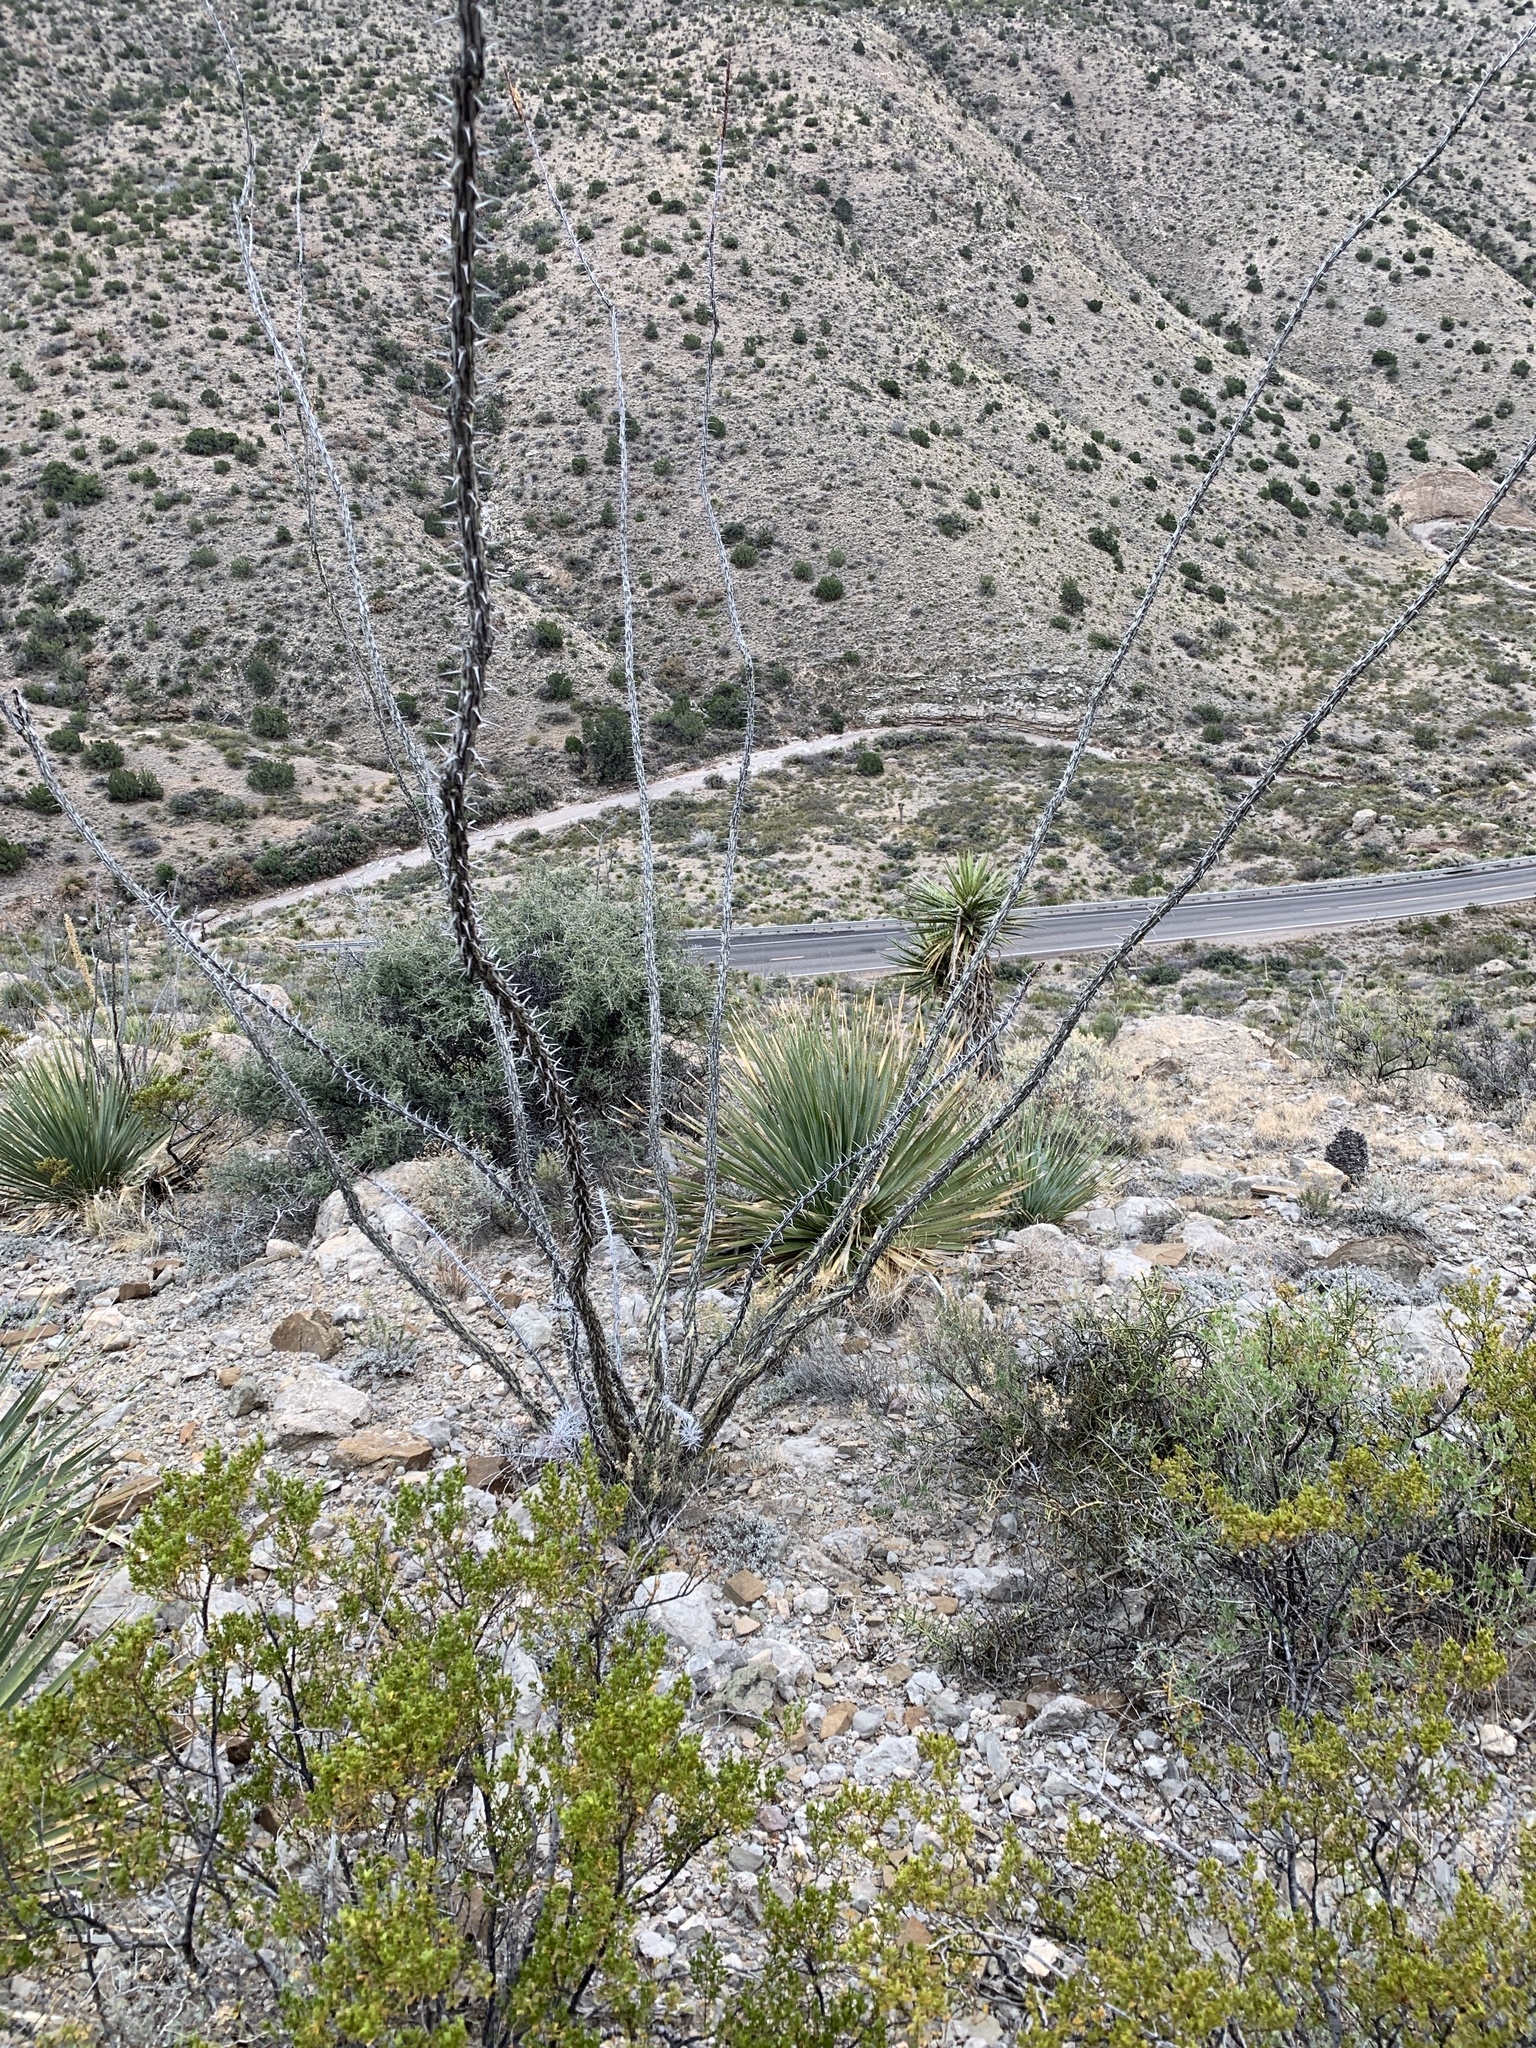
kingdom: Plantae
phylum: Tracheophyta
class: Magnoliopsida
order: Ericales
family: Fouquieriaceae
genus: Fouquieria
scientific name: Fouquieria splendens
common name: Vine-cactus
